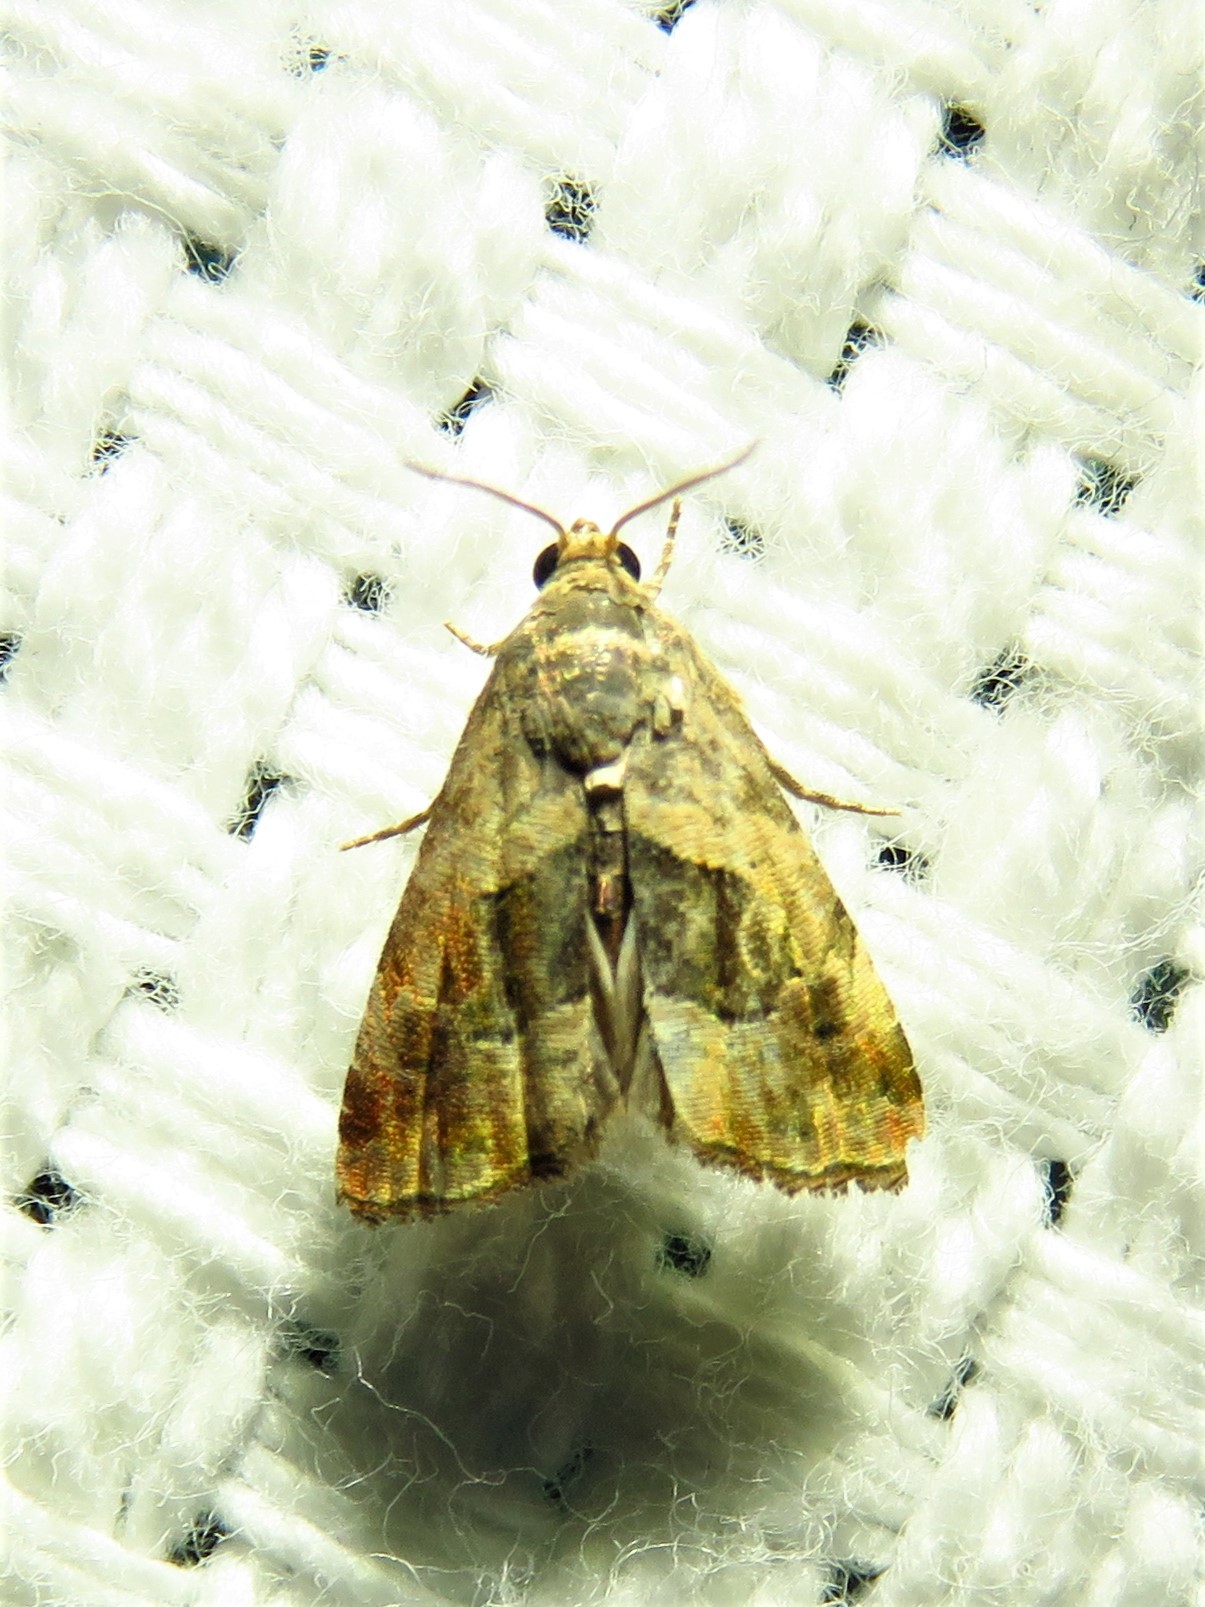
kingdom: Animalia
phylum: Arthropoda
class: Insecta
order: Lepidoptera
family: Noctuidae
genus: Tripudia
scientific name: Tripudia quadrifera
